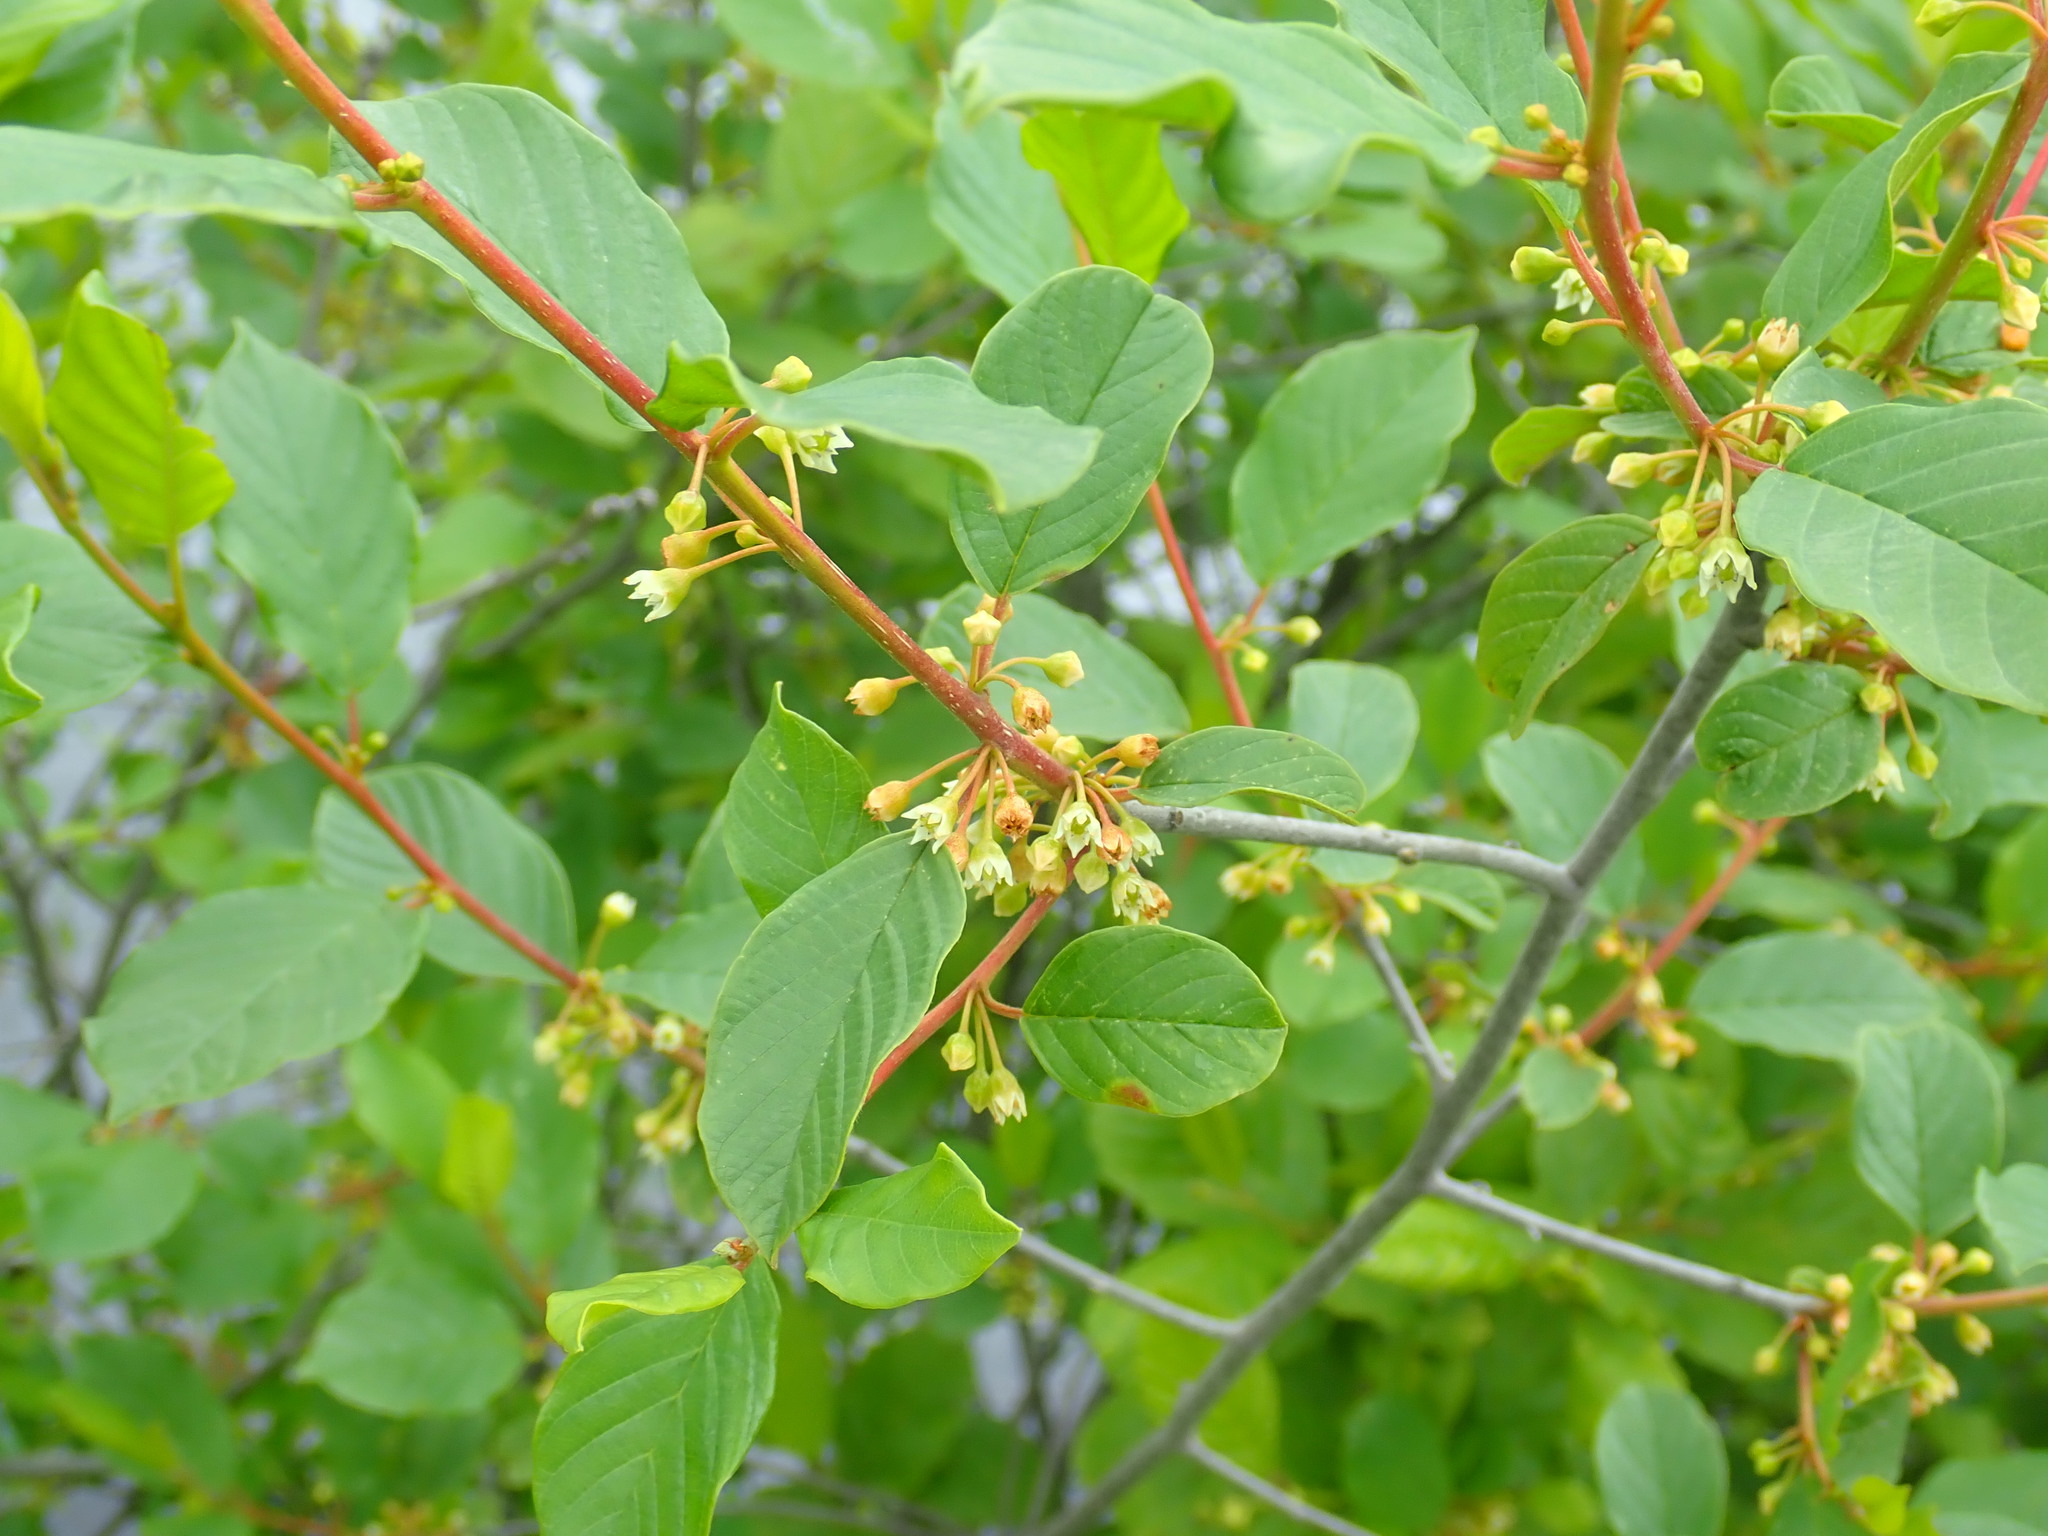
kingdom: Plantae
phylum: Tracheophyta
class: Magnoliopsida
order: Rosales
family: Rhamnaceae
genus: Frangula
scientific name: Frangula alnus
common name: Alder buckthorn
